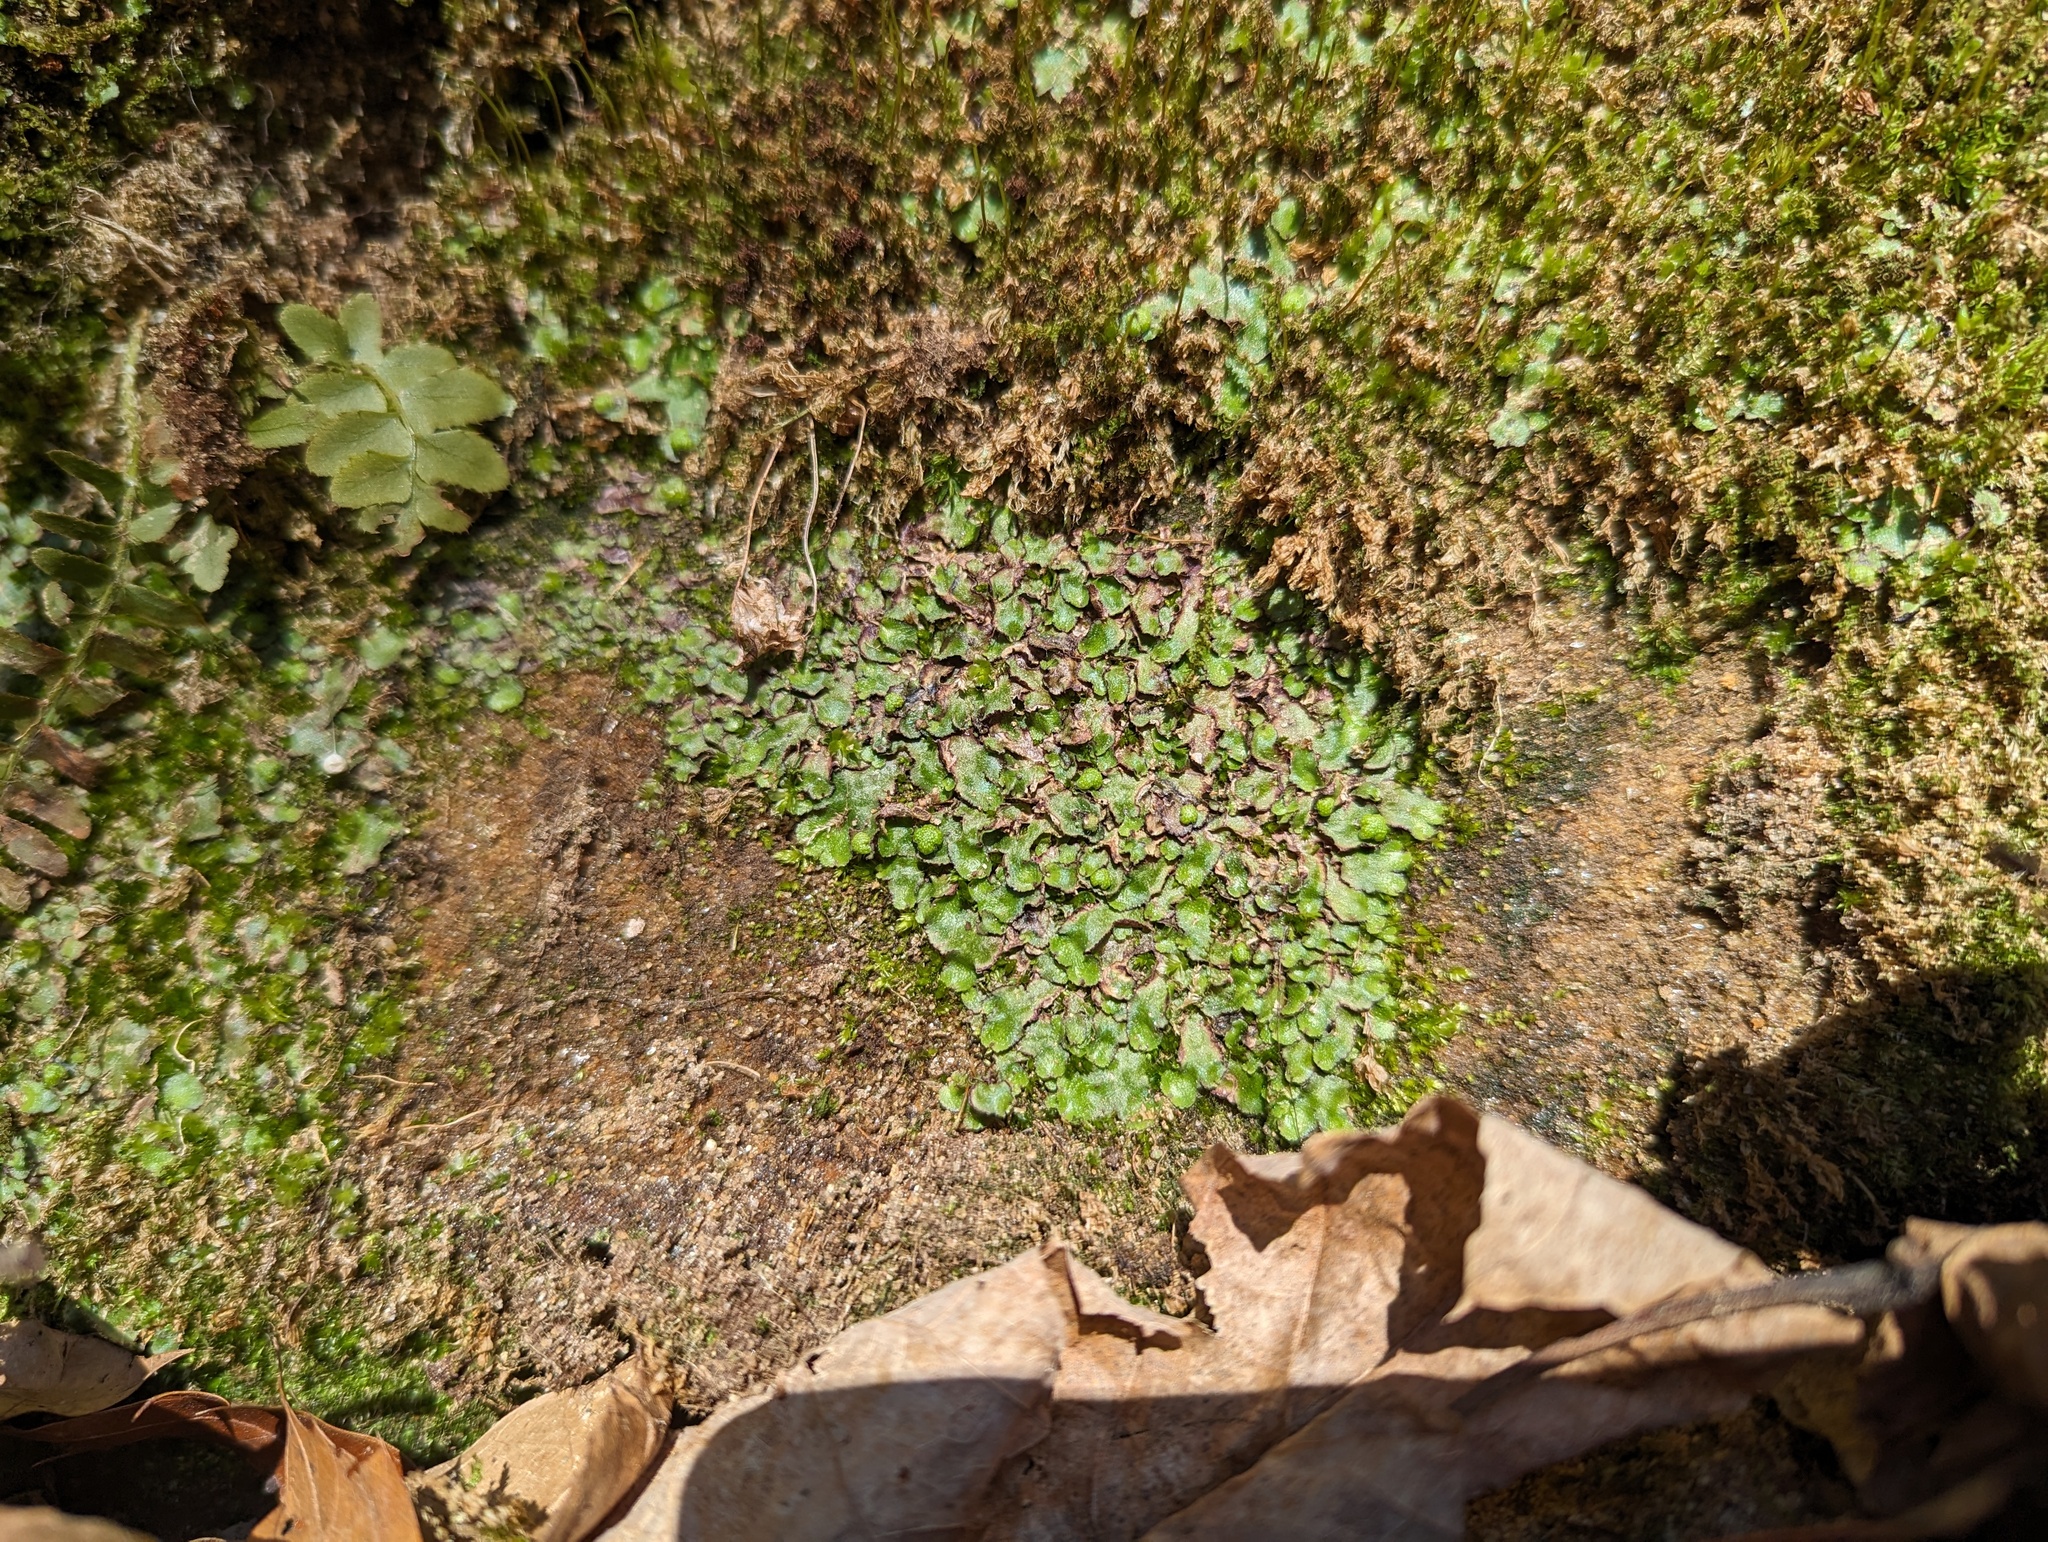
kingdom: Plantae
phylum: Marchantiophyta
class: Marchantiopsida
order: Marchantiales
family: Aytoniaceae
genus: Reboulia
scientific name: Reboulia hemisphaerica
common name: Purple-margined liverwort
